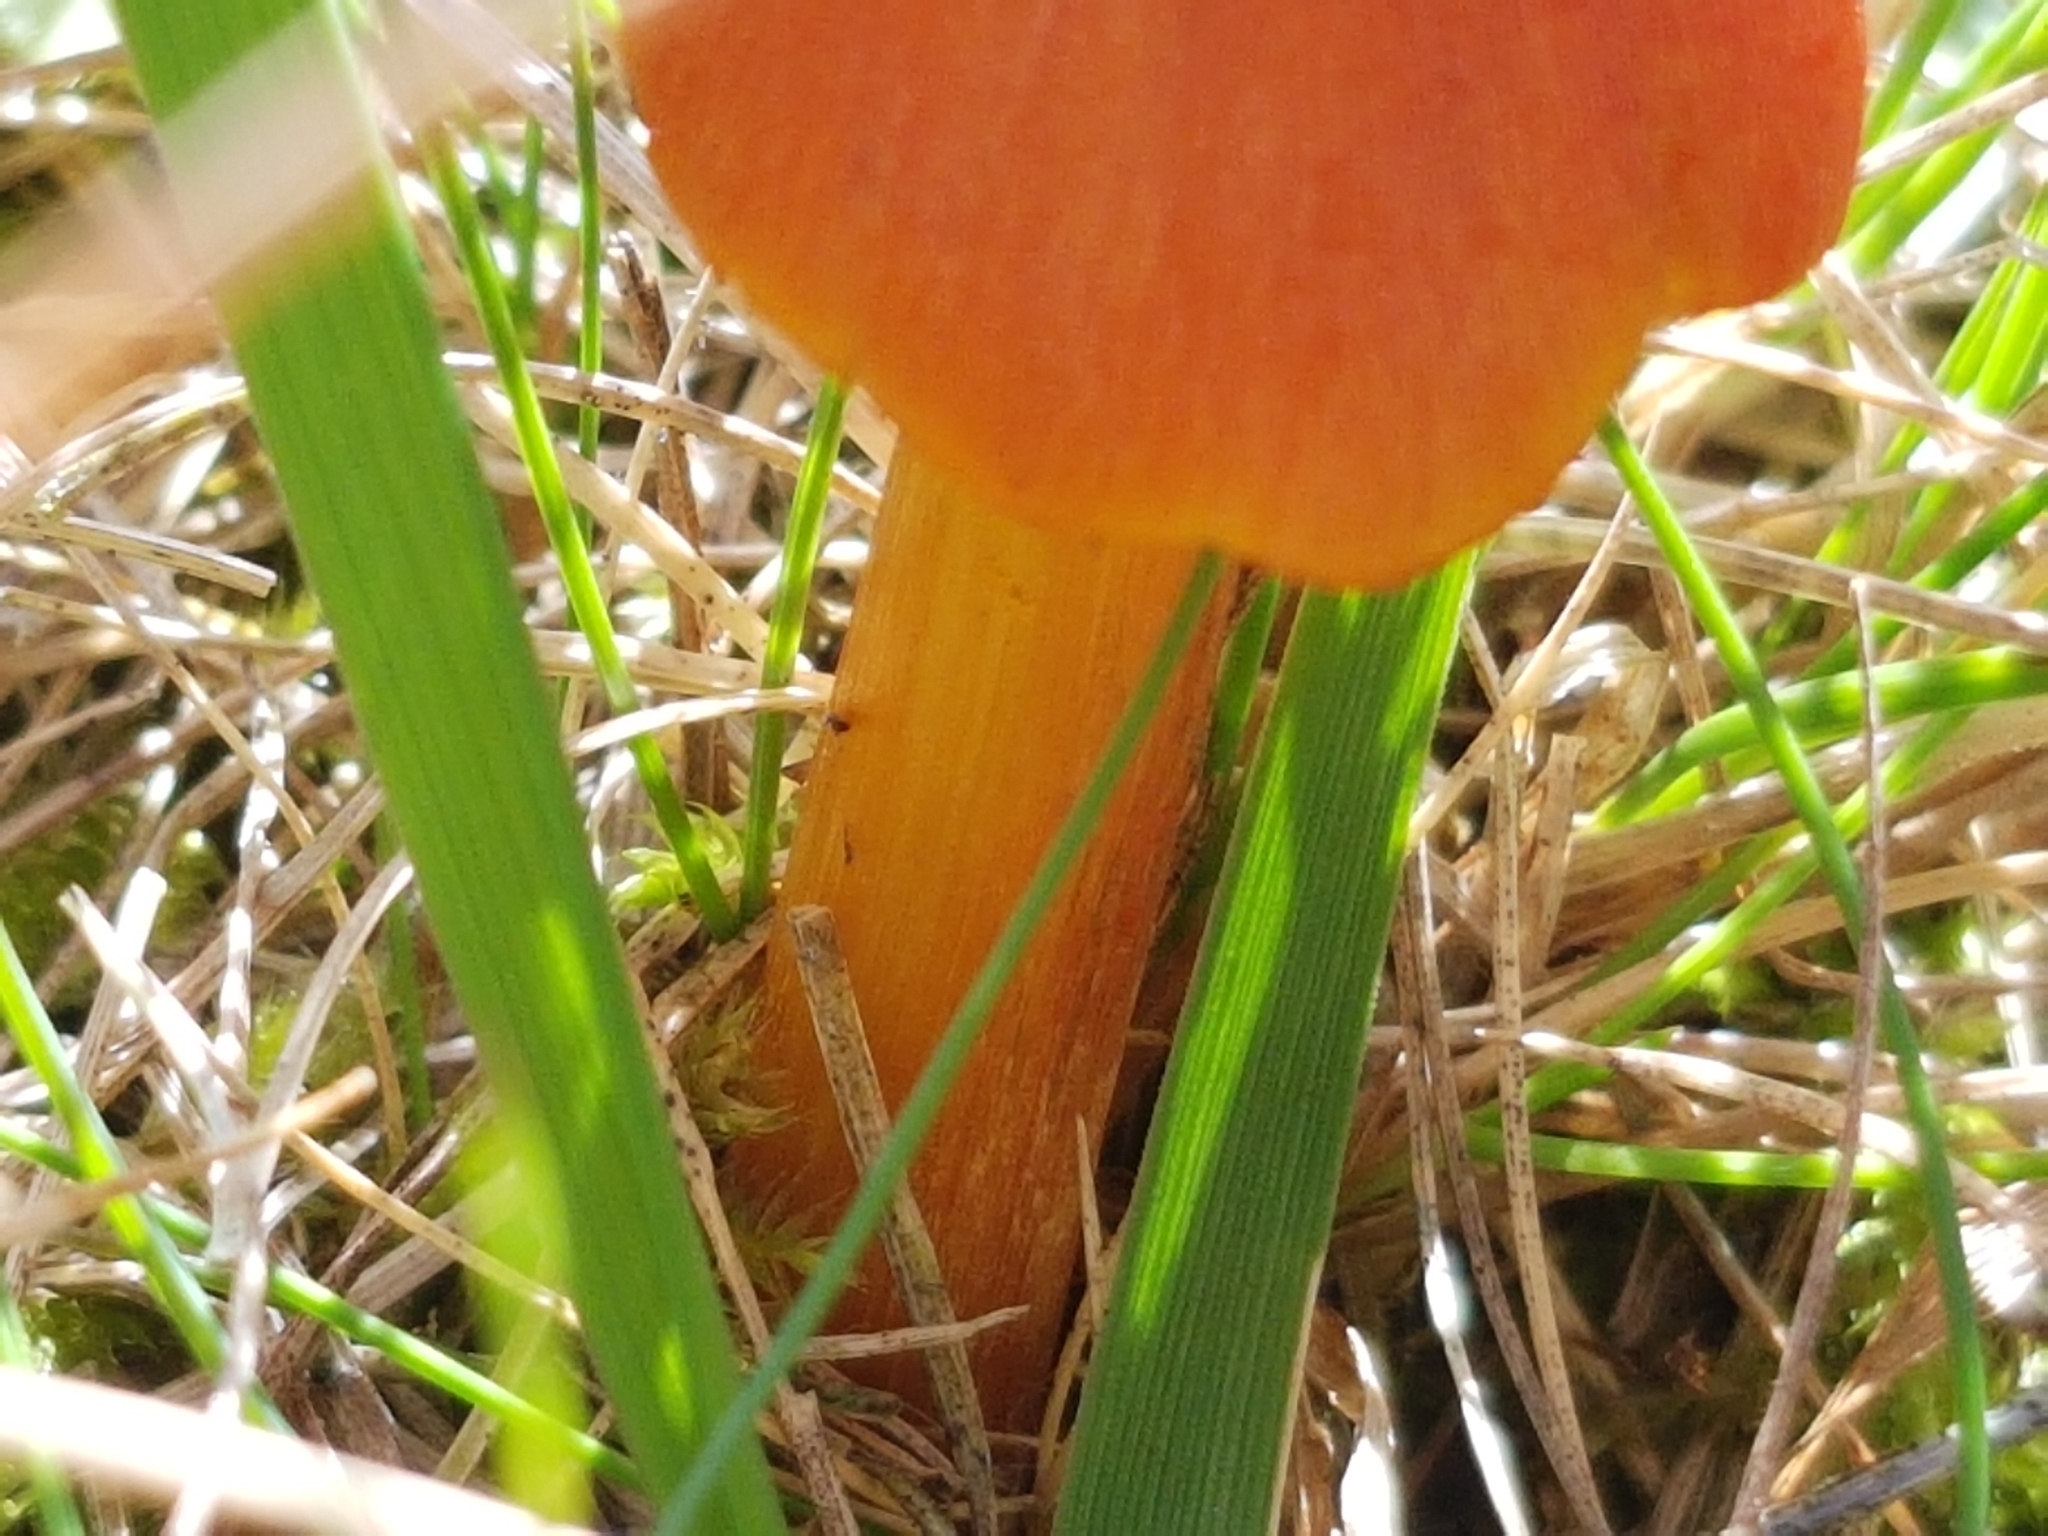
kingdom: Fungi
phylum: Basidiomycota
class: Agaricomycetes
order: Agaricales
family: Hygrophoraceae
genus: Hygrocybe
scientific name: Hygrocybe conica
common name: Blackening wax-cap
